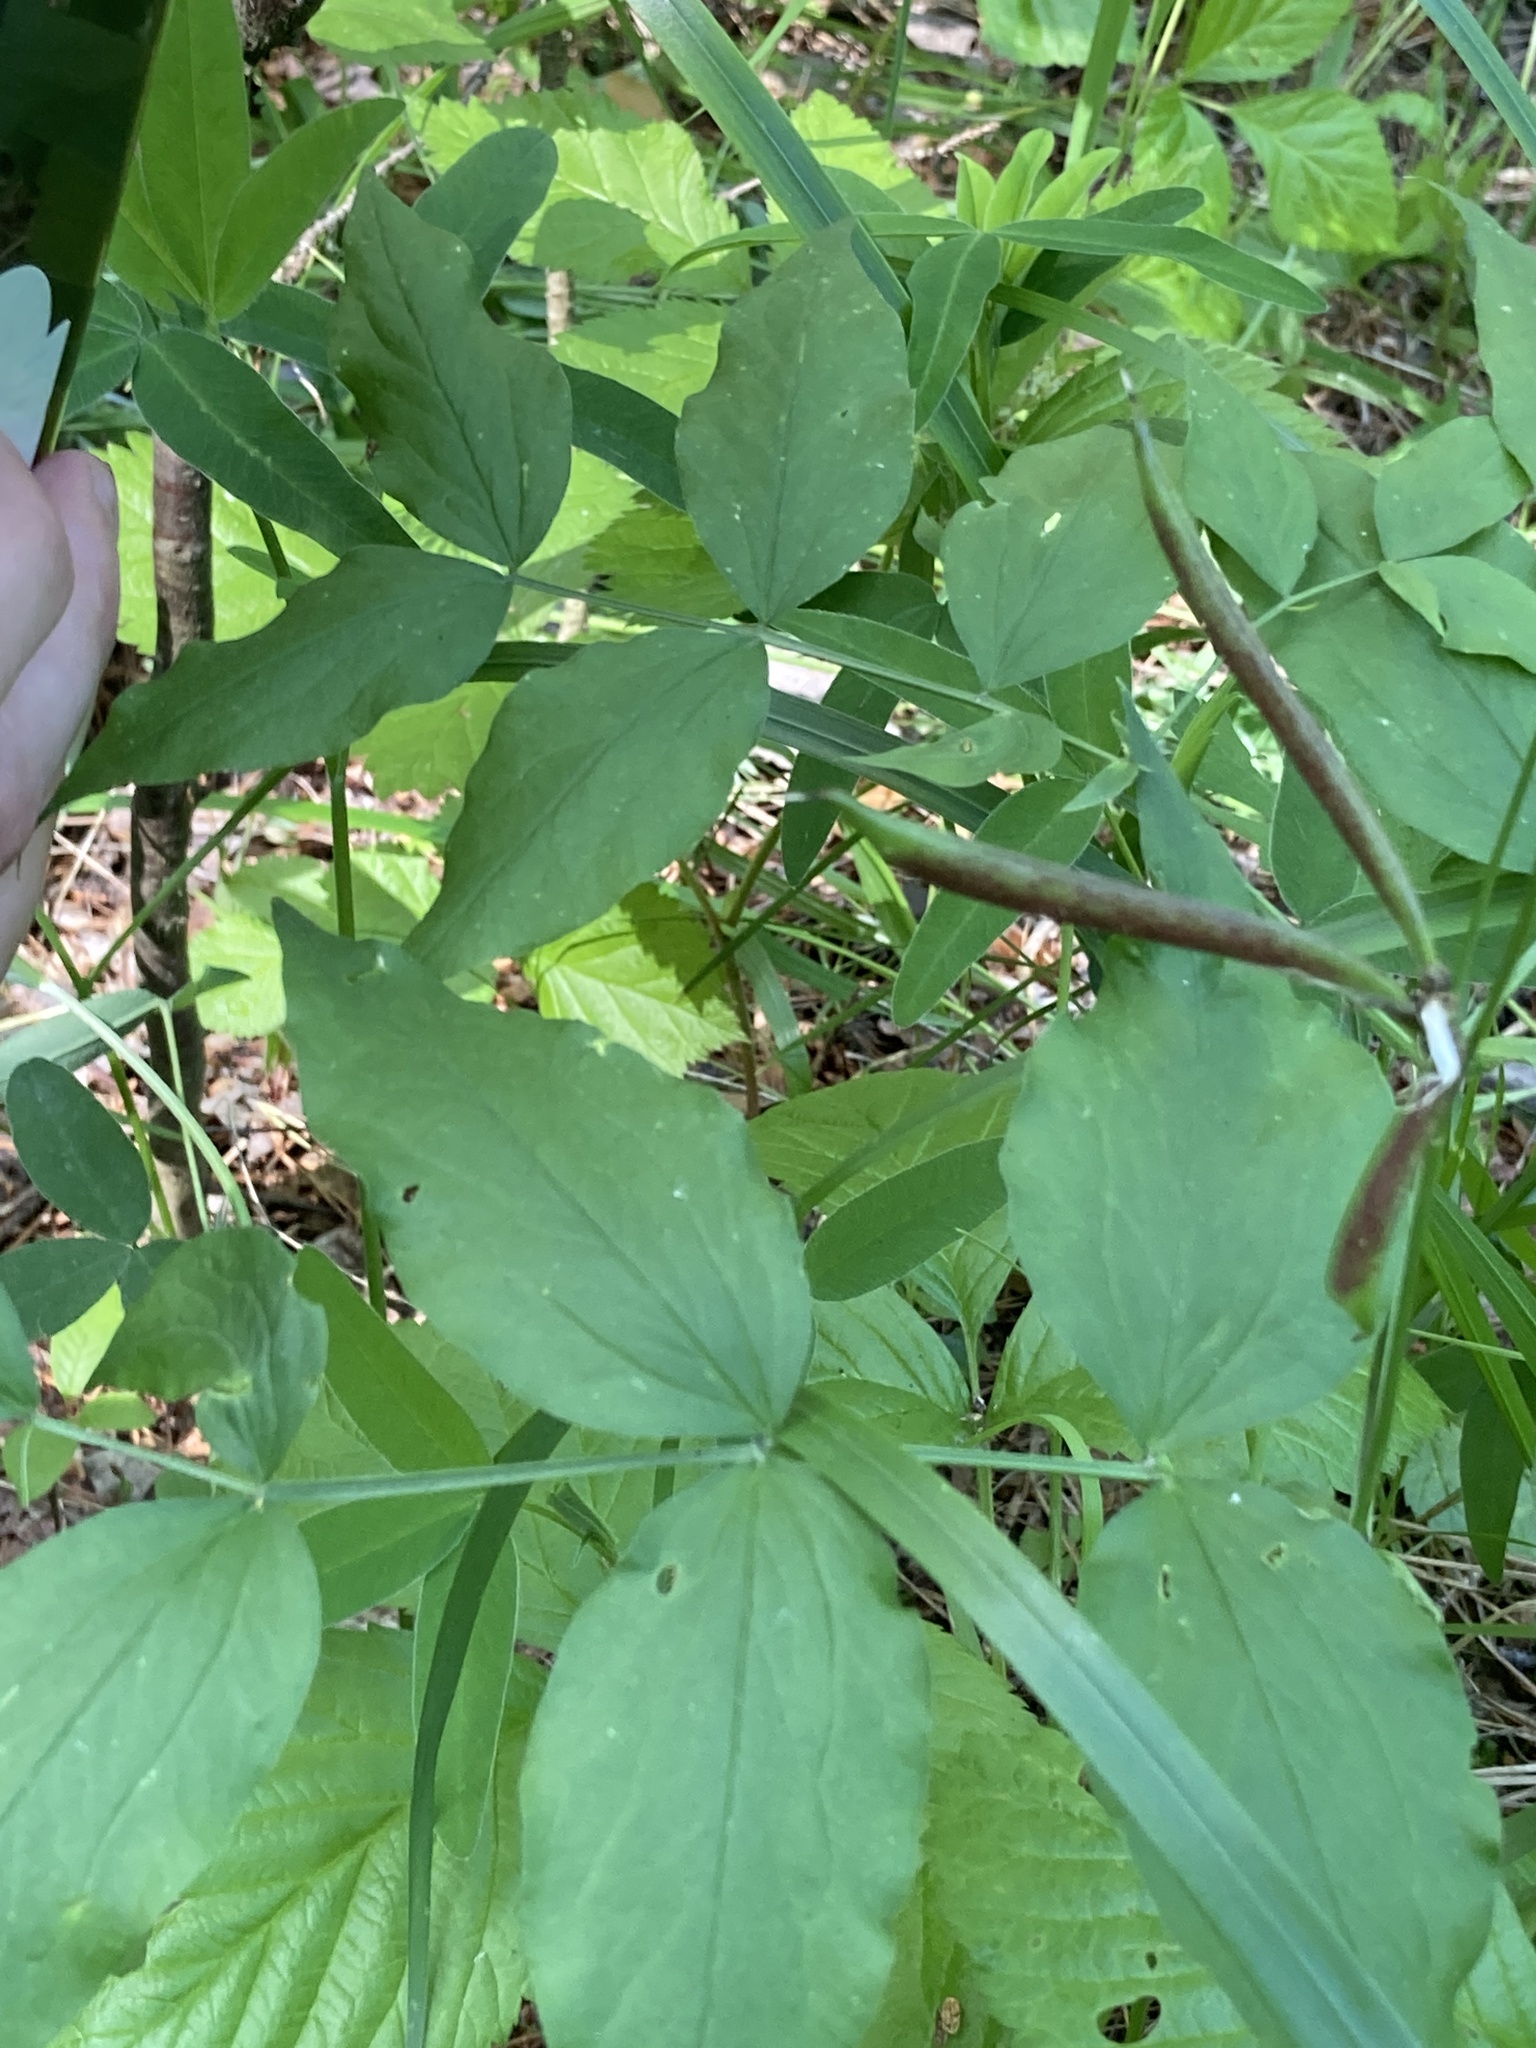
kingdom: Plantae
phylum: Tracheophyta
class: Magnoliopsida
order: Fabales
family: Fabaceae
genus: Lathyrus
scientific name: Lathyrus vernus
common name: Spring pea
